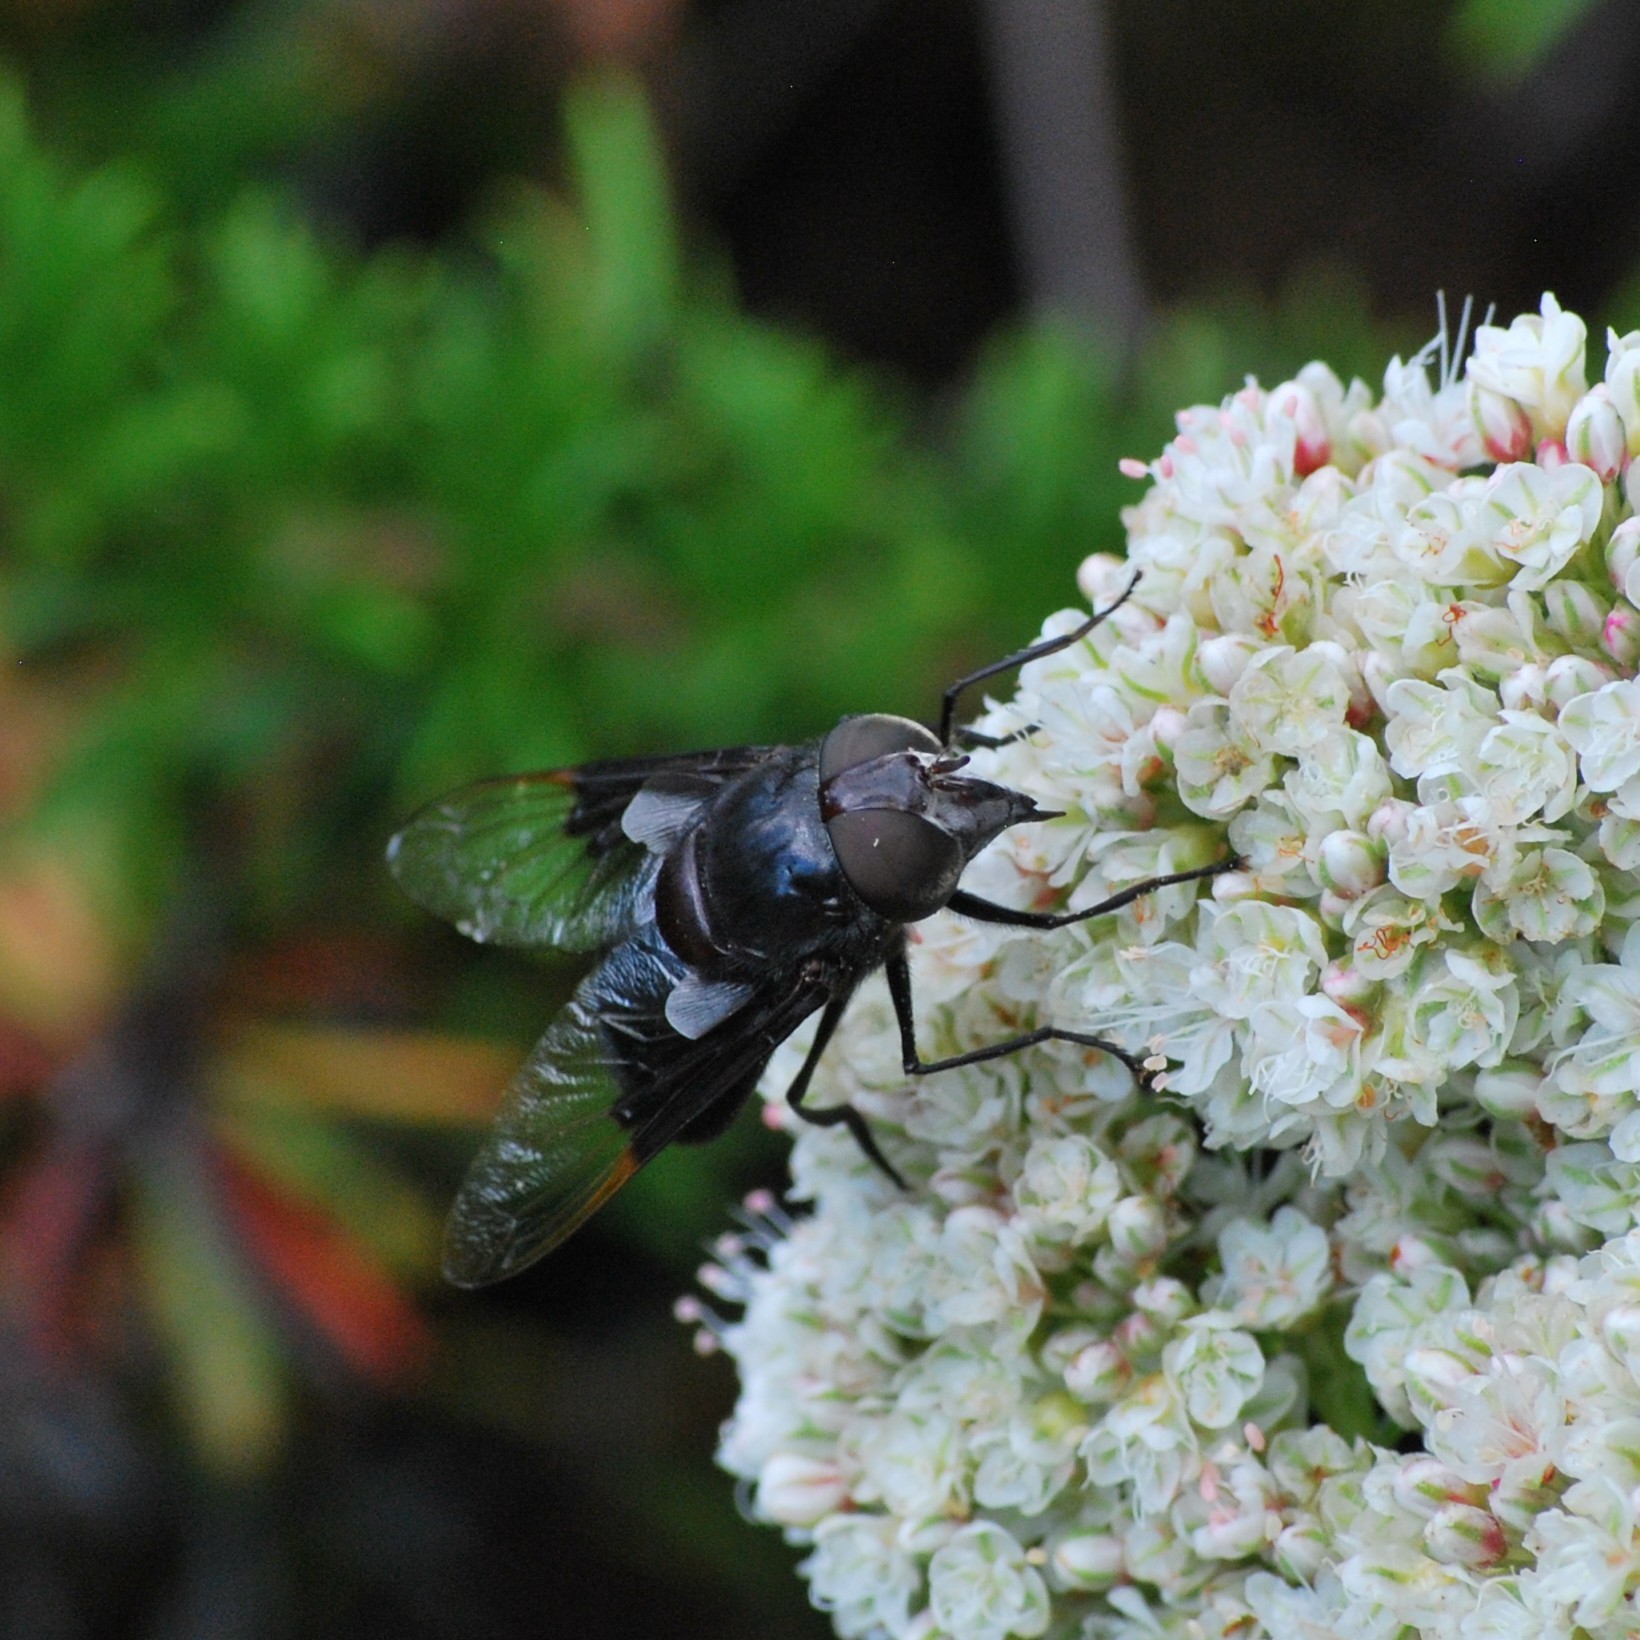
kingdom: Animalia
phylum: Arthropoda
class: Insecta
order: Diptera
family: Syrphidae
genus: Copestylum
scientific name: Copestylum
